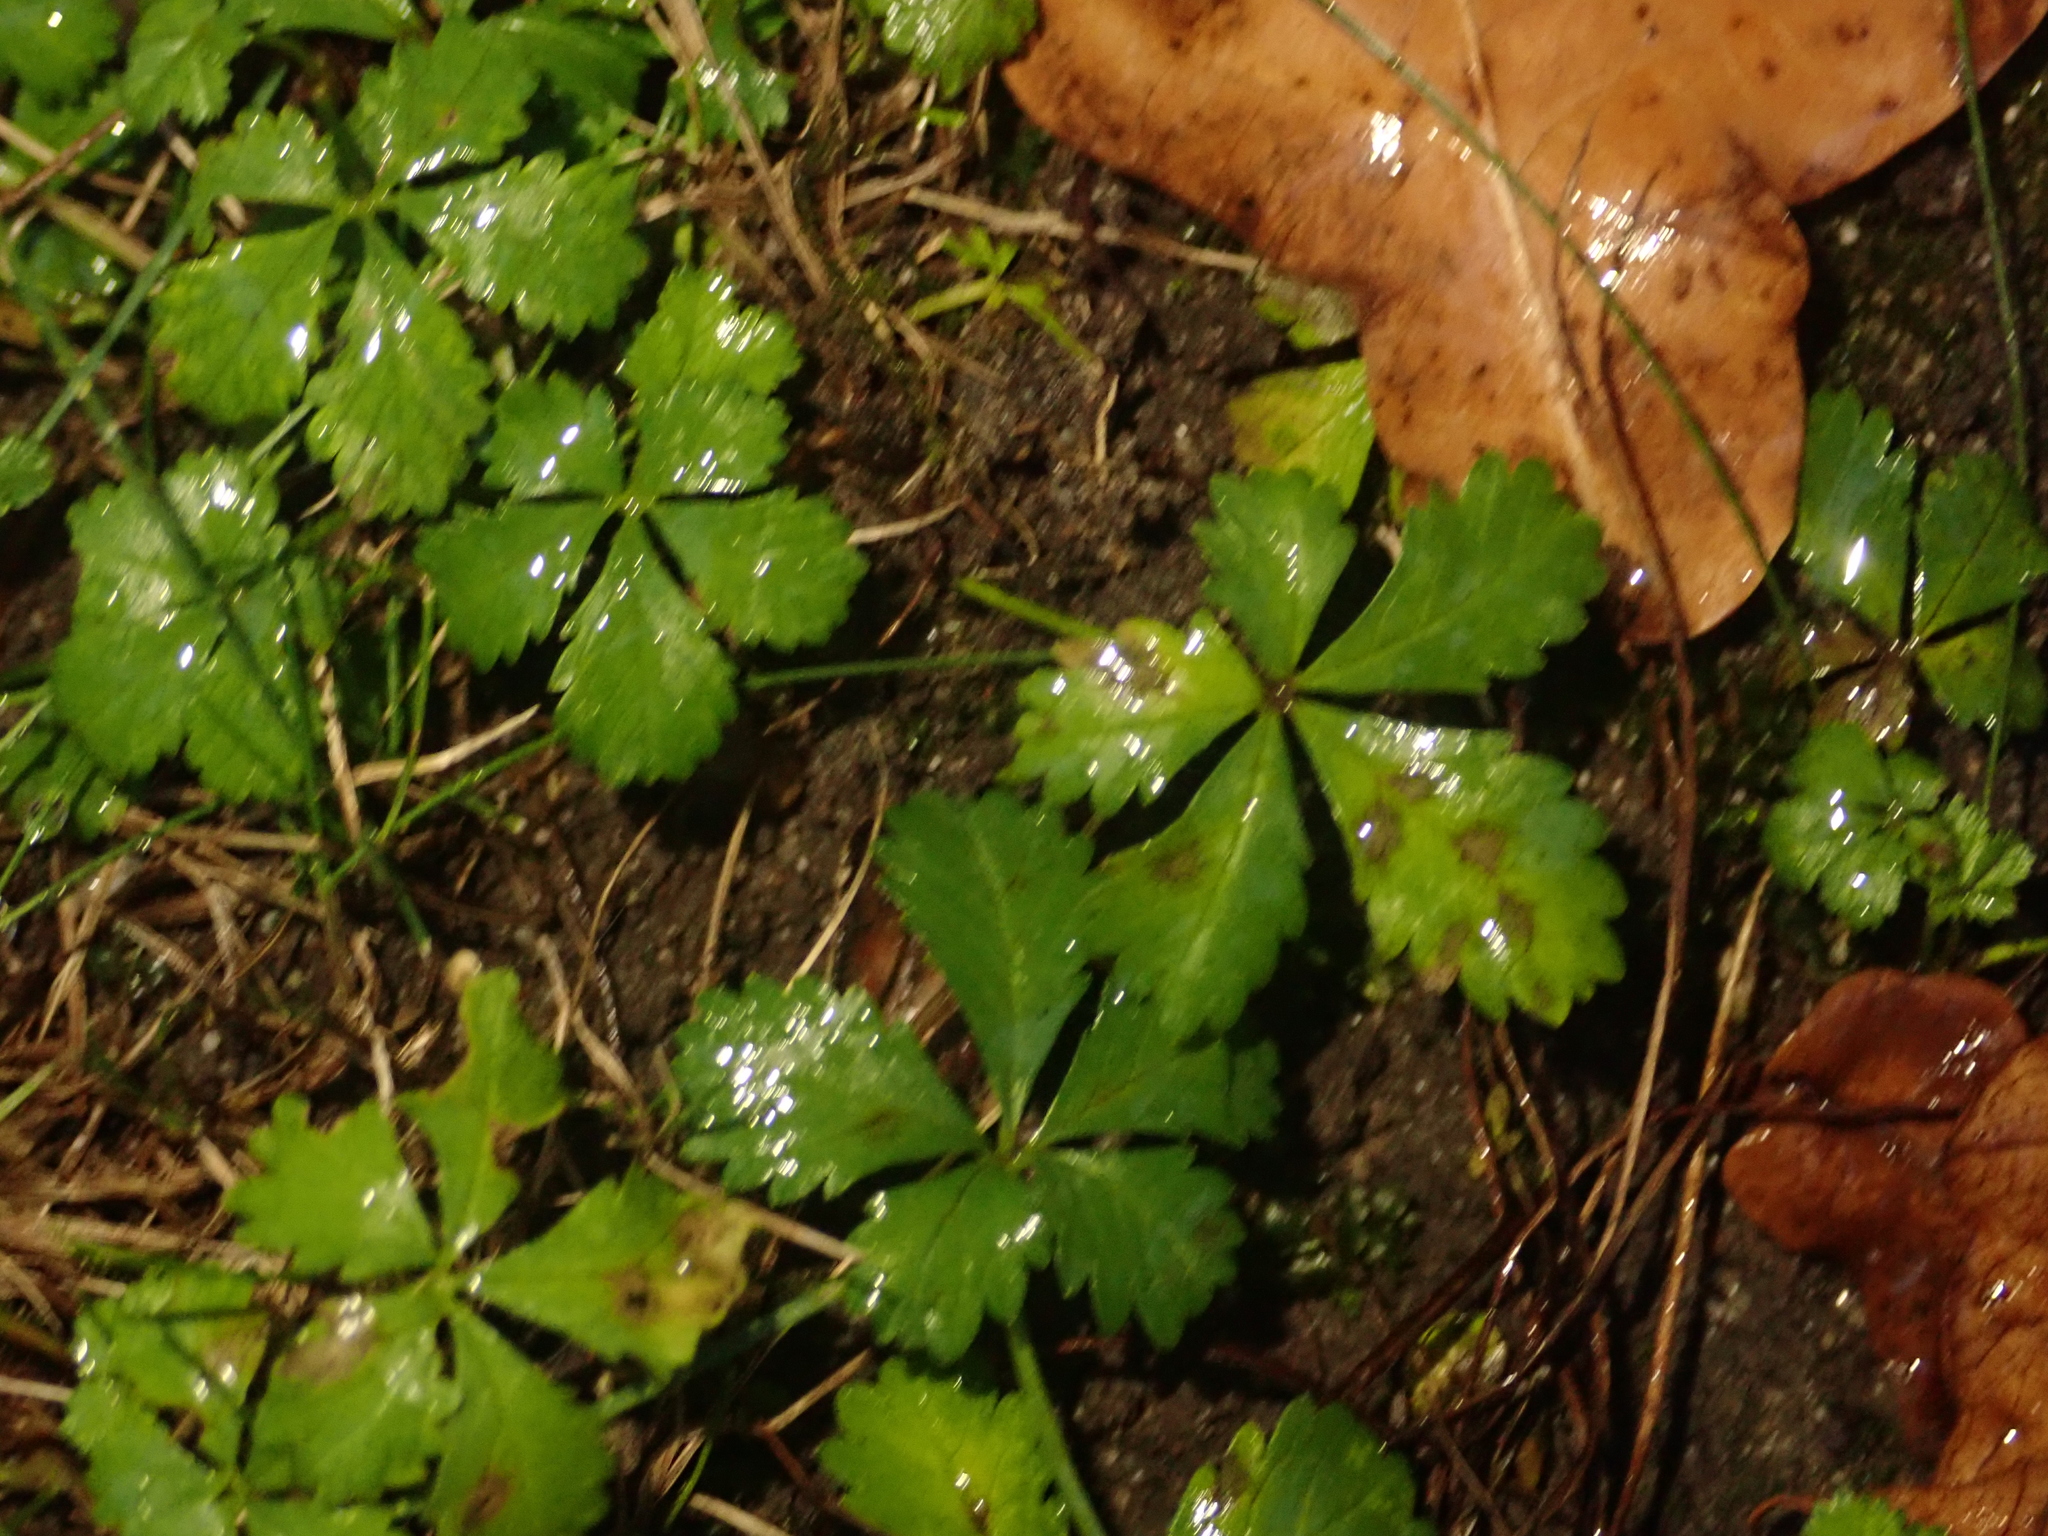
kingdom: Plantae
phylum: Tracheophyta
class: Magnoliopsida
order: Rosales
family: Rosaceae
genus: Potentilla
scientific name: Potentilla reptans
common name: Creeping cinquefoil
